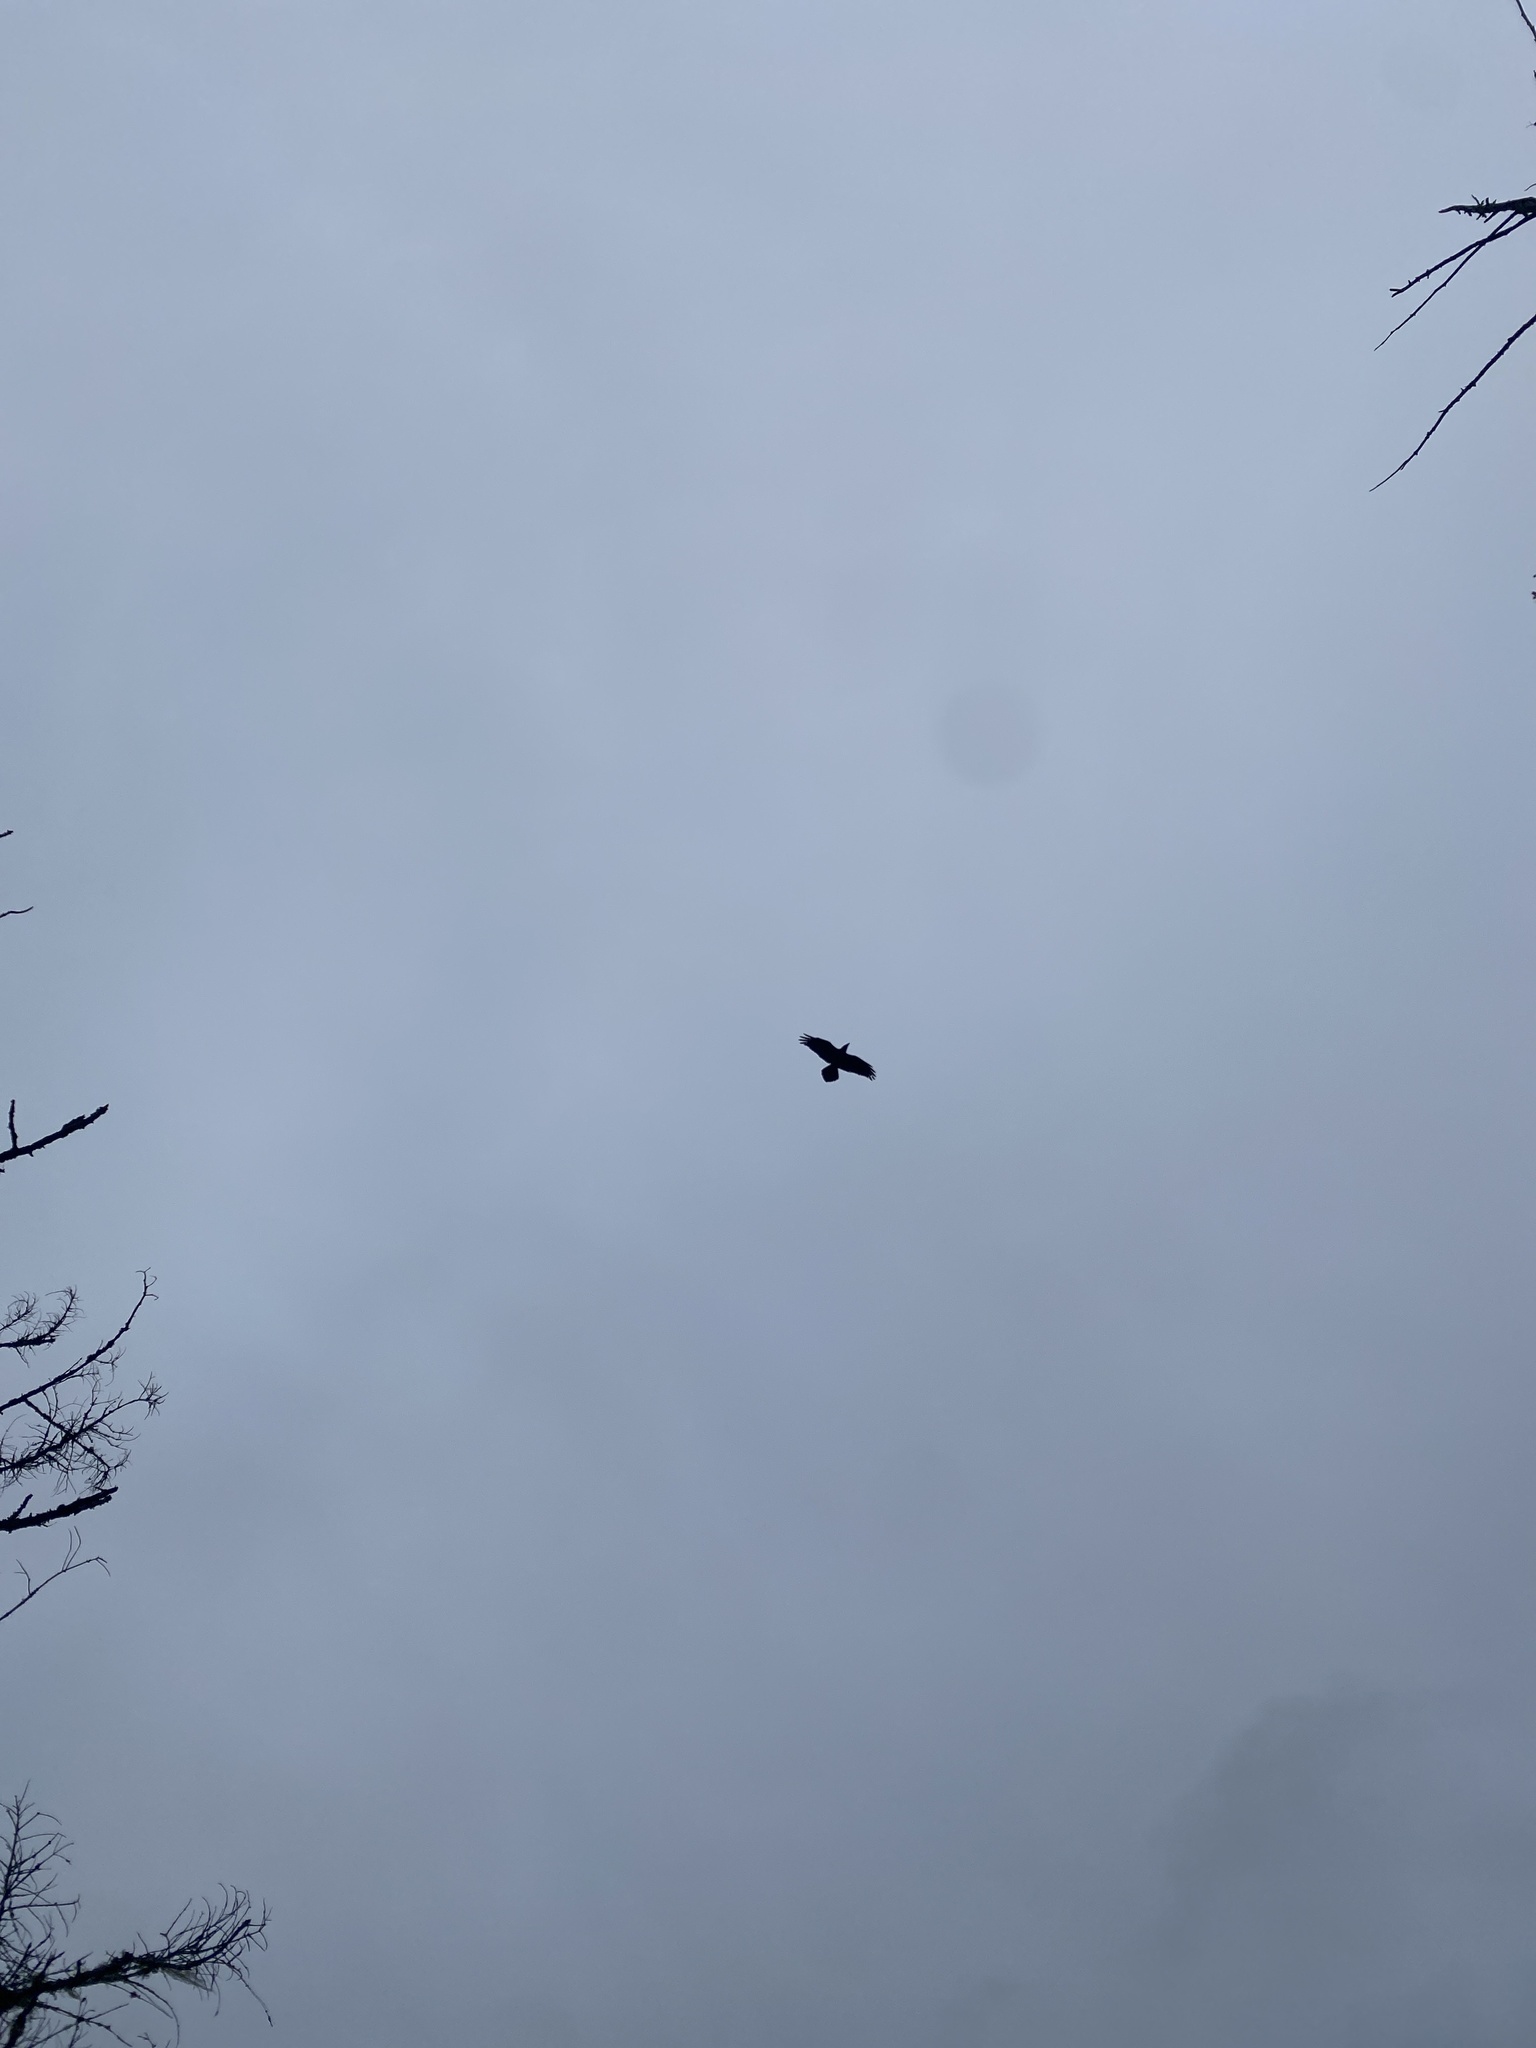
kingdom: Animalia
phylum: Chordata
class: Aves
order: Passeriformes
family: Corvidae
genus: Corvus
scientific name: Corvus corax
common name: Common raven
